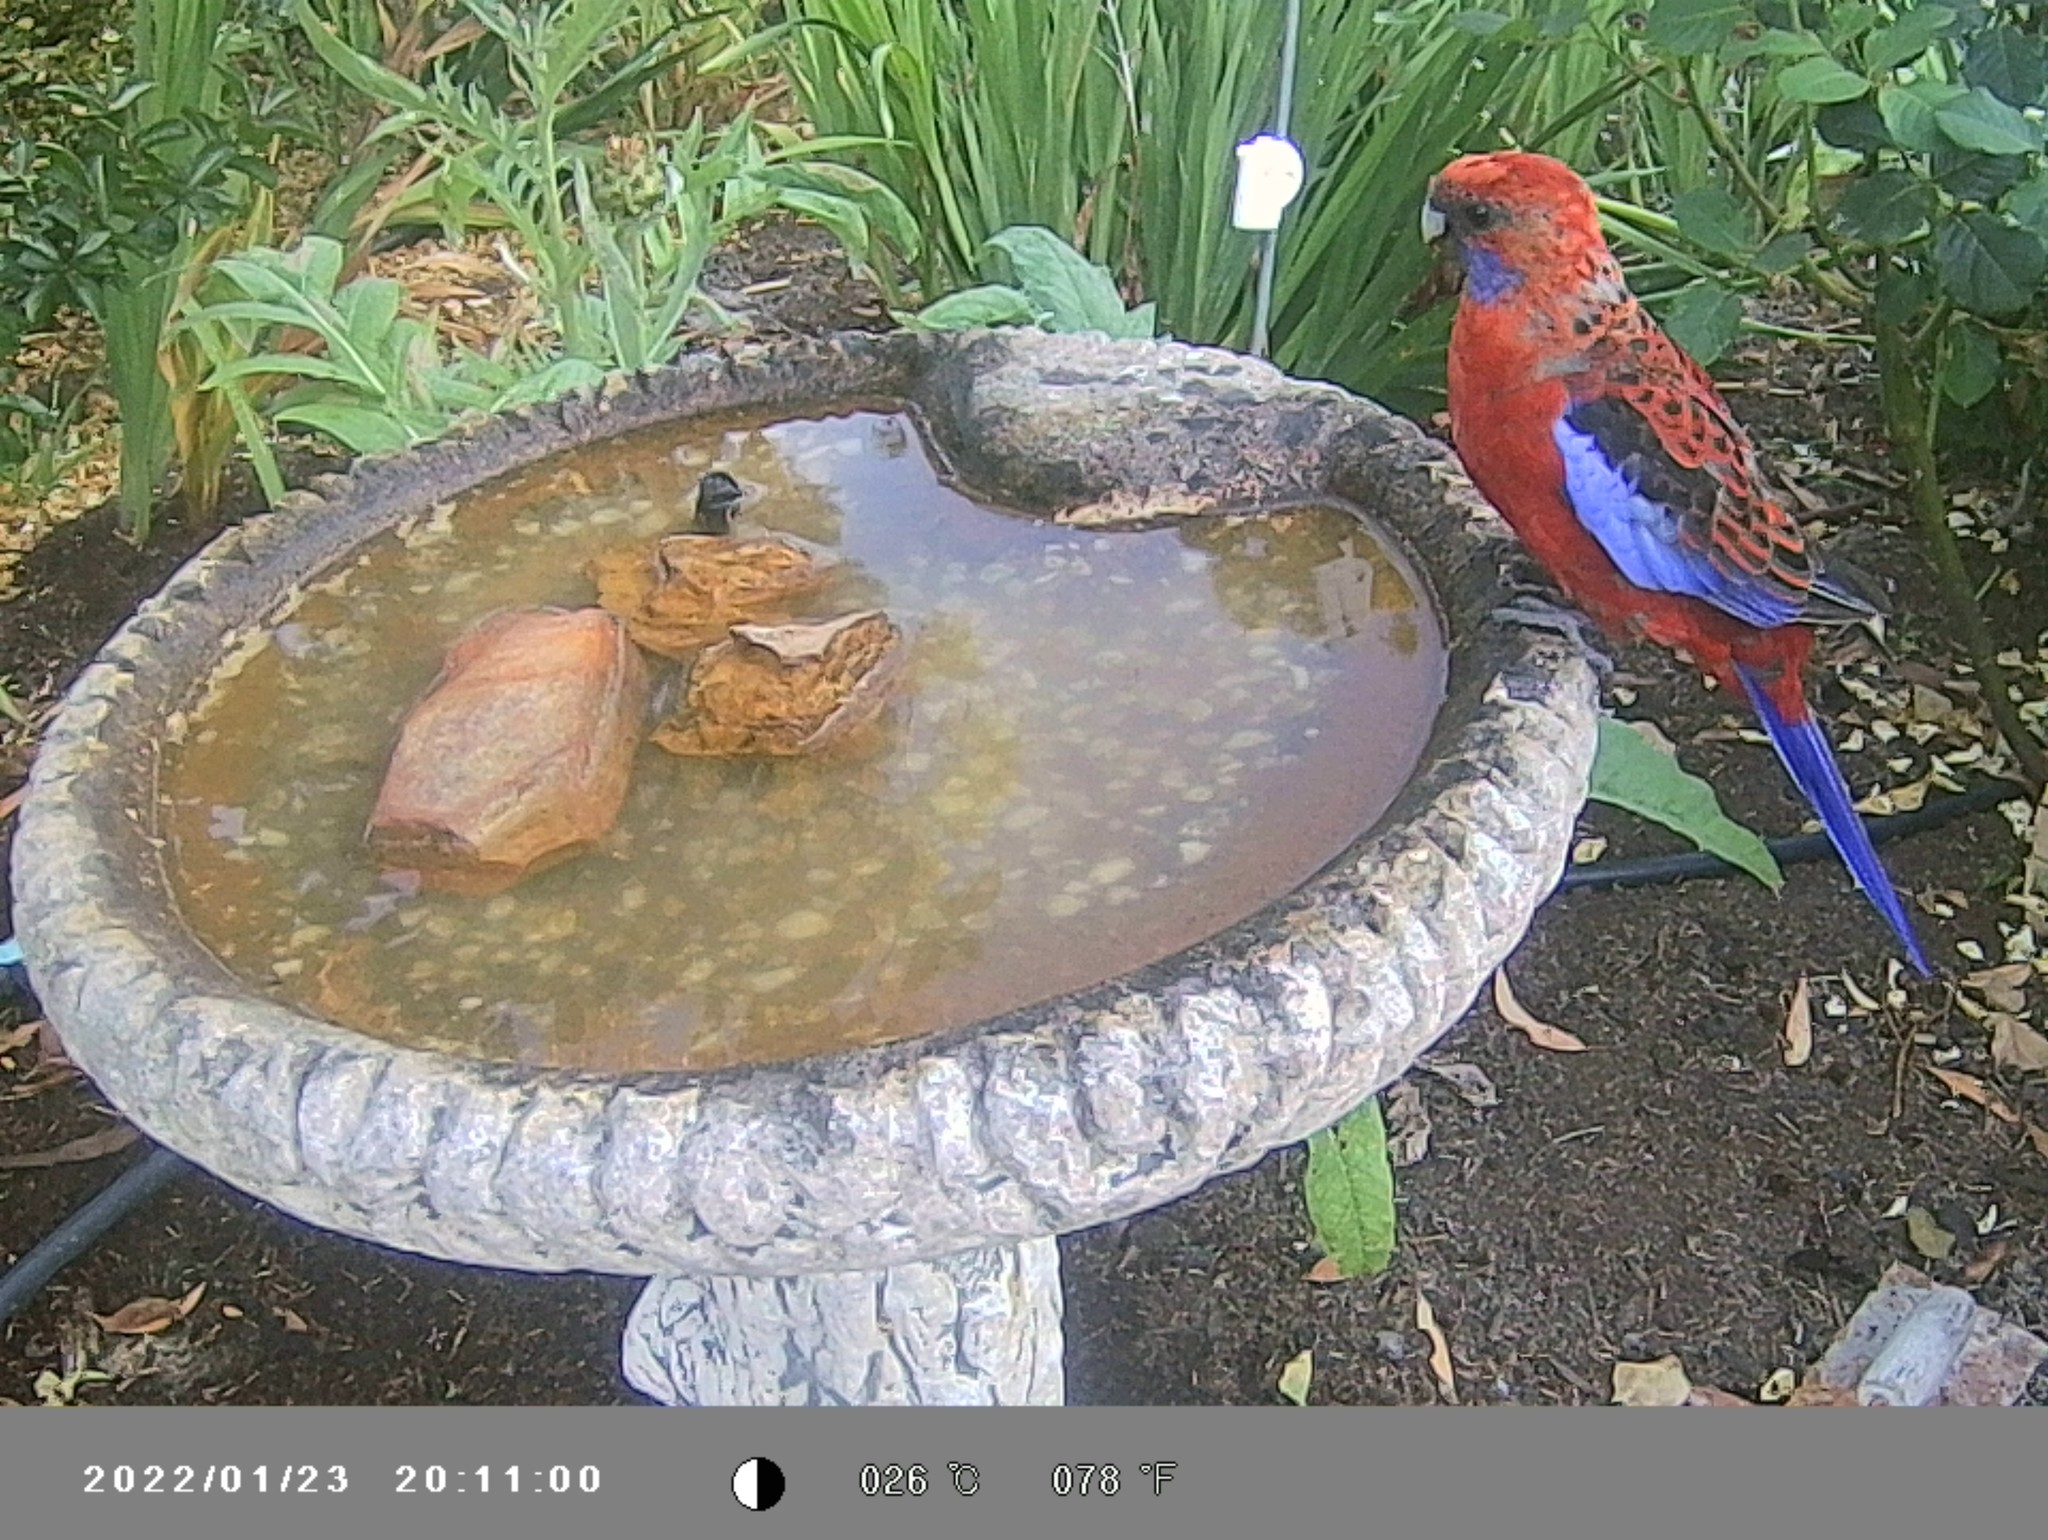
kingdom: Animalia
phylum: Chordata
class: Aves
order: Psittaciformes
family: Psittacidae
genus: Platycercus
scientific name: Platycercus elegans
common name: Crimson rosella
